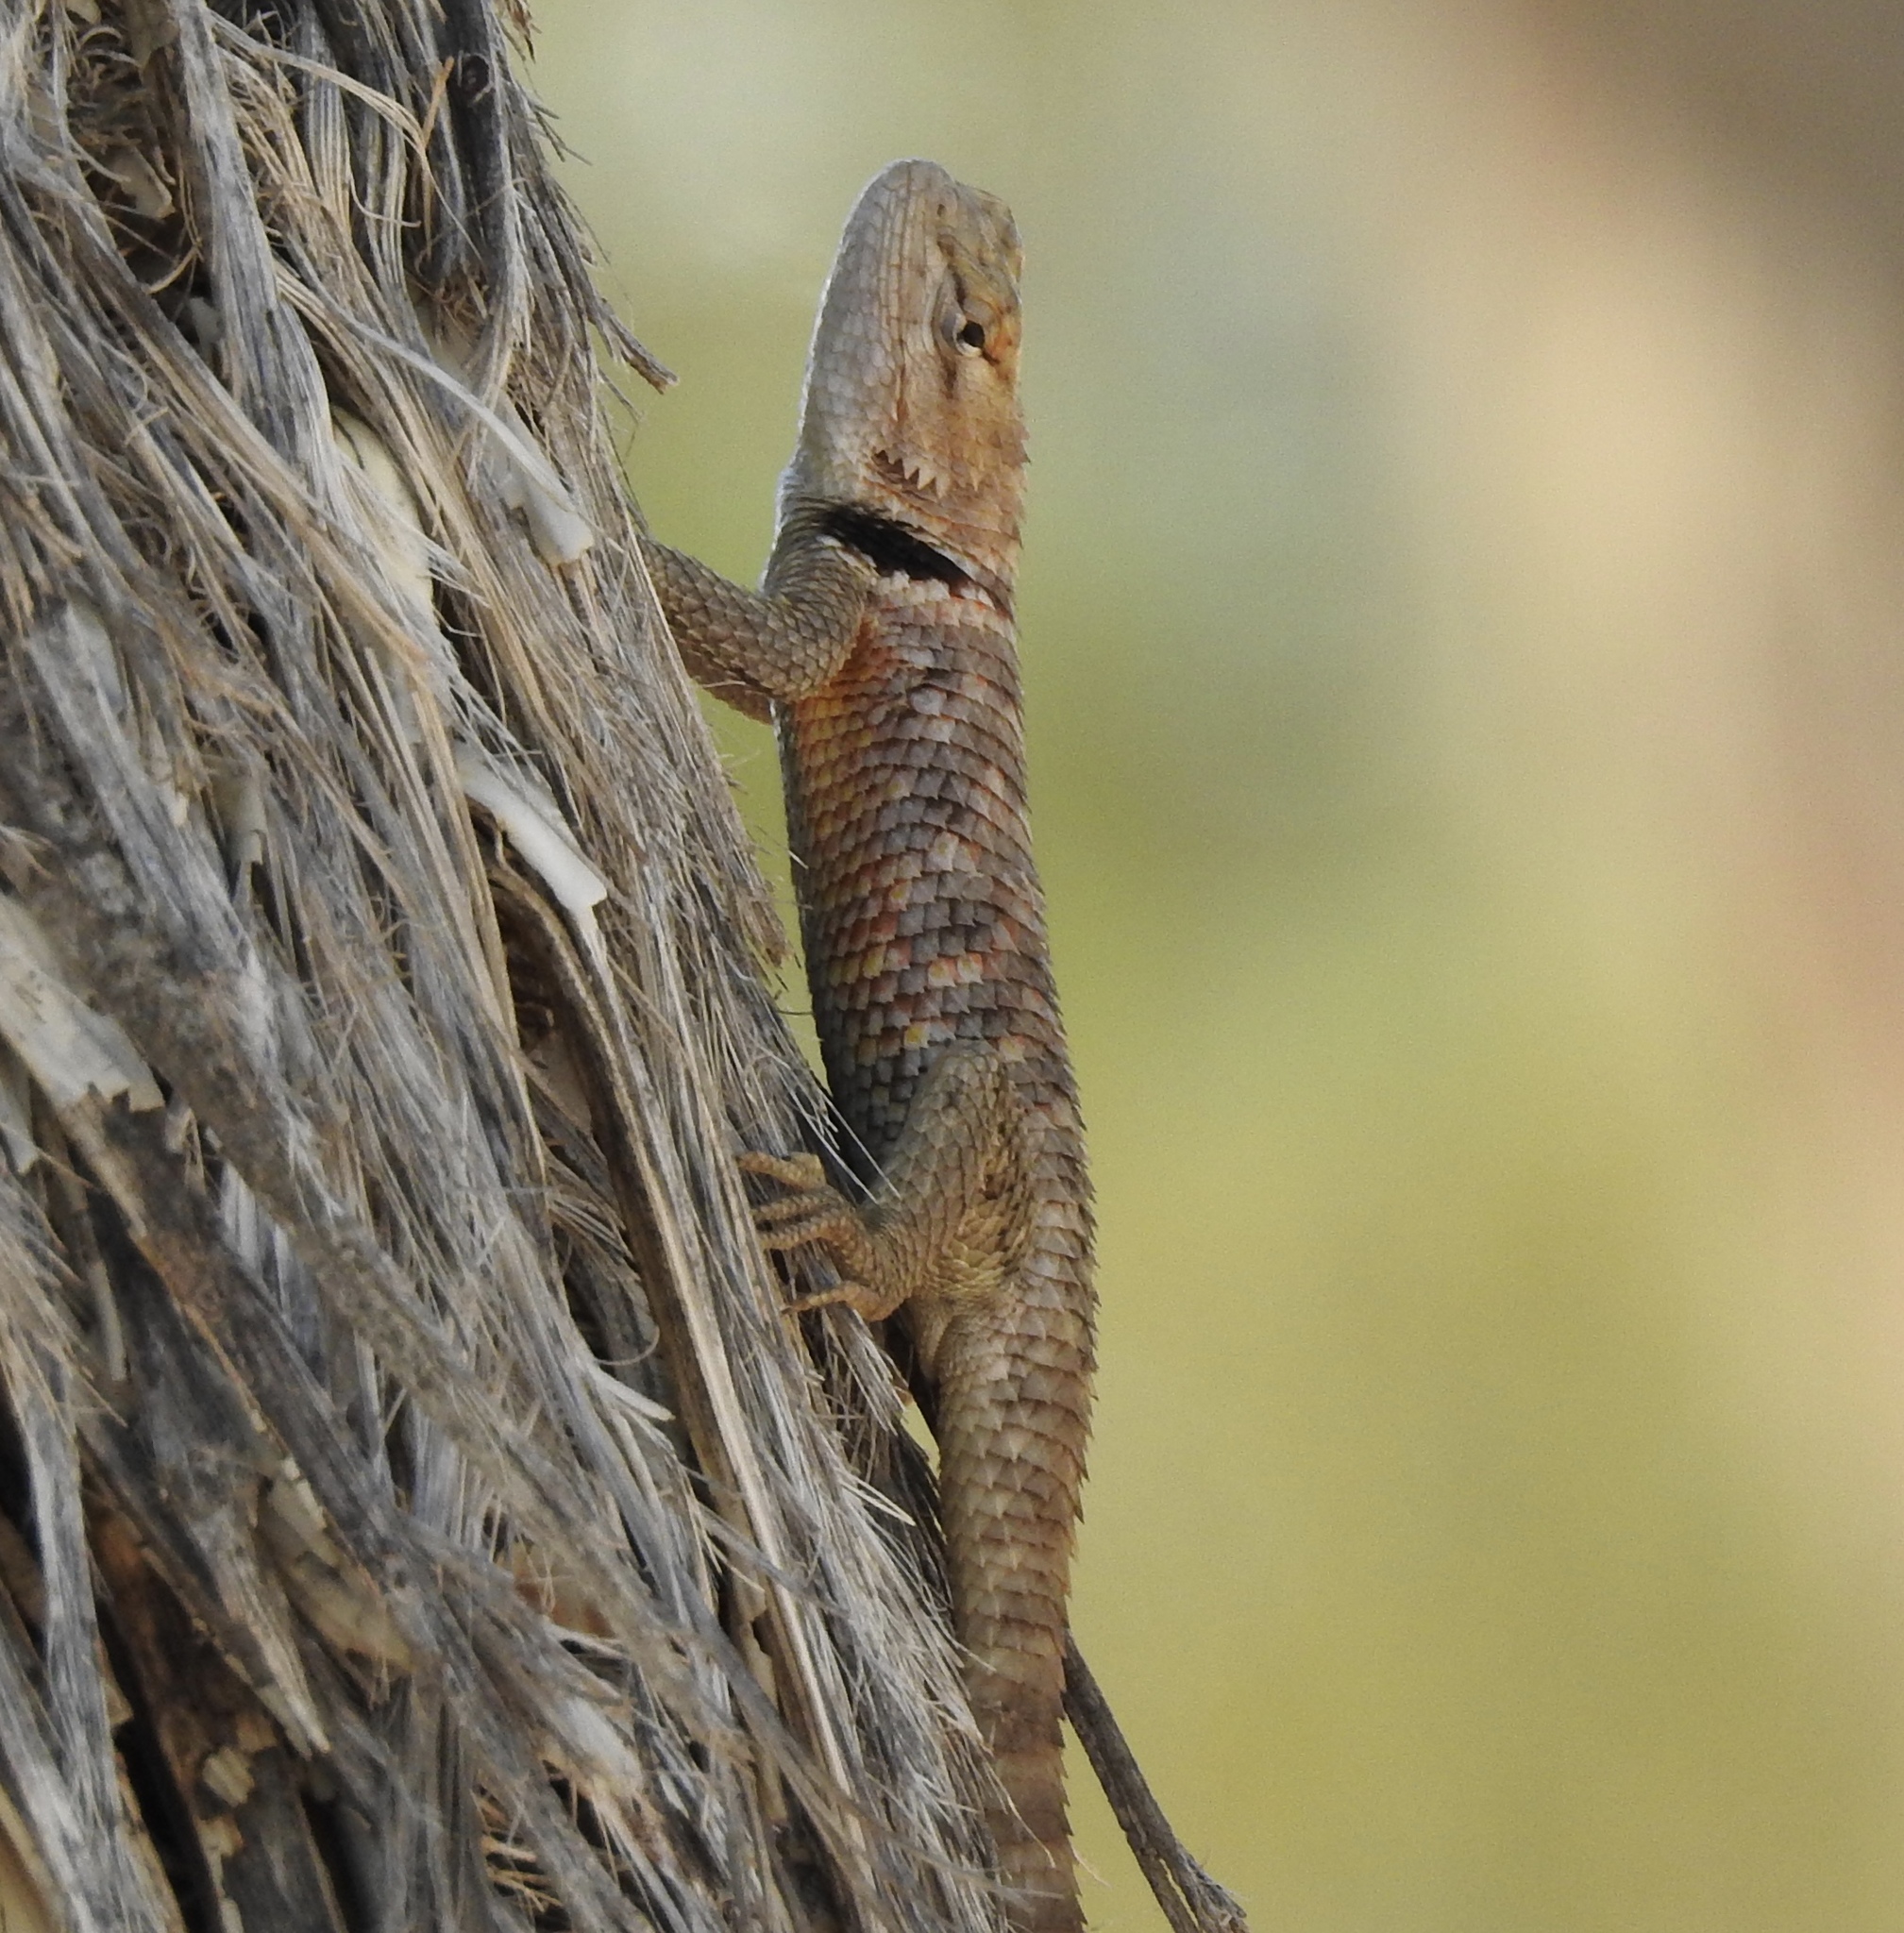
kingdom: Animalia
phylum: Chordata
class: Squamata
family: Phrynosomatidae
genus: Sceloporus
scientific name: Sceloporus magister
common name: Desert spiny lizard
